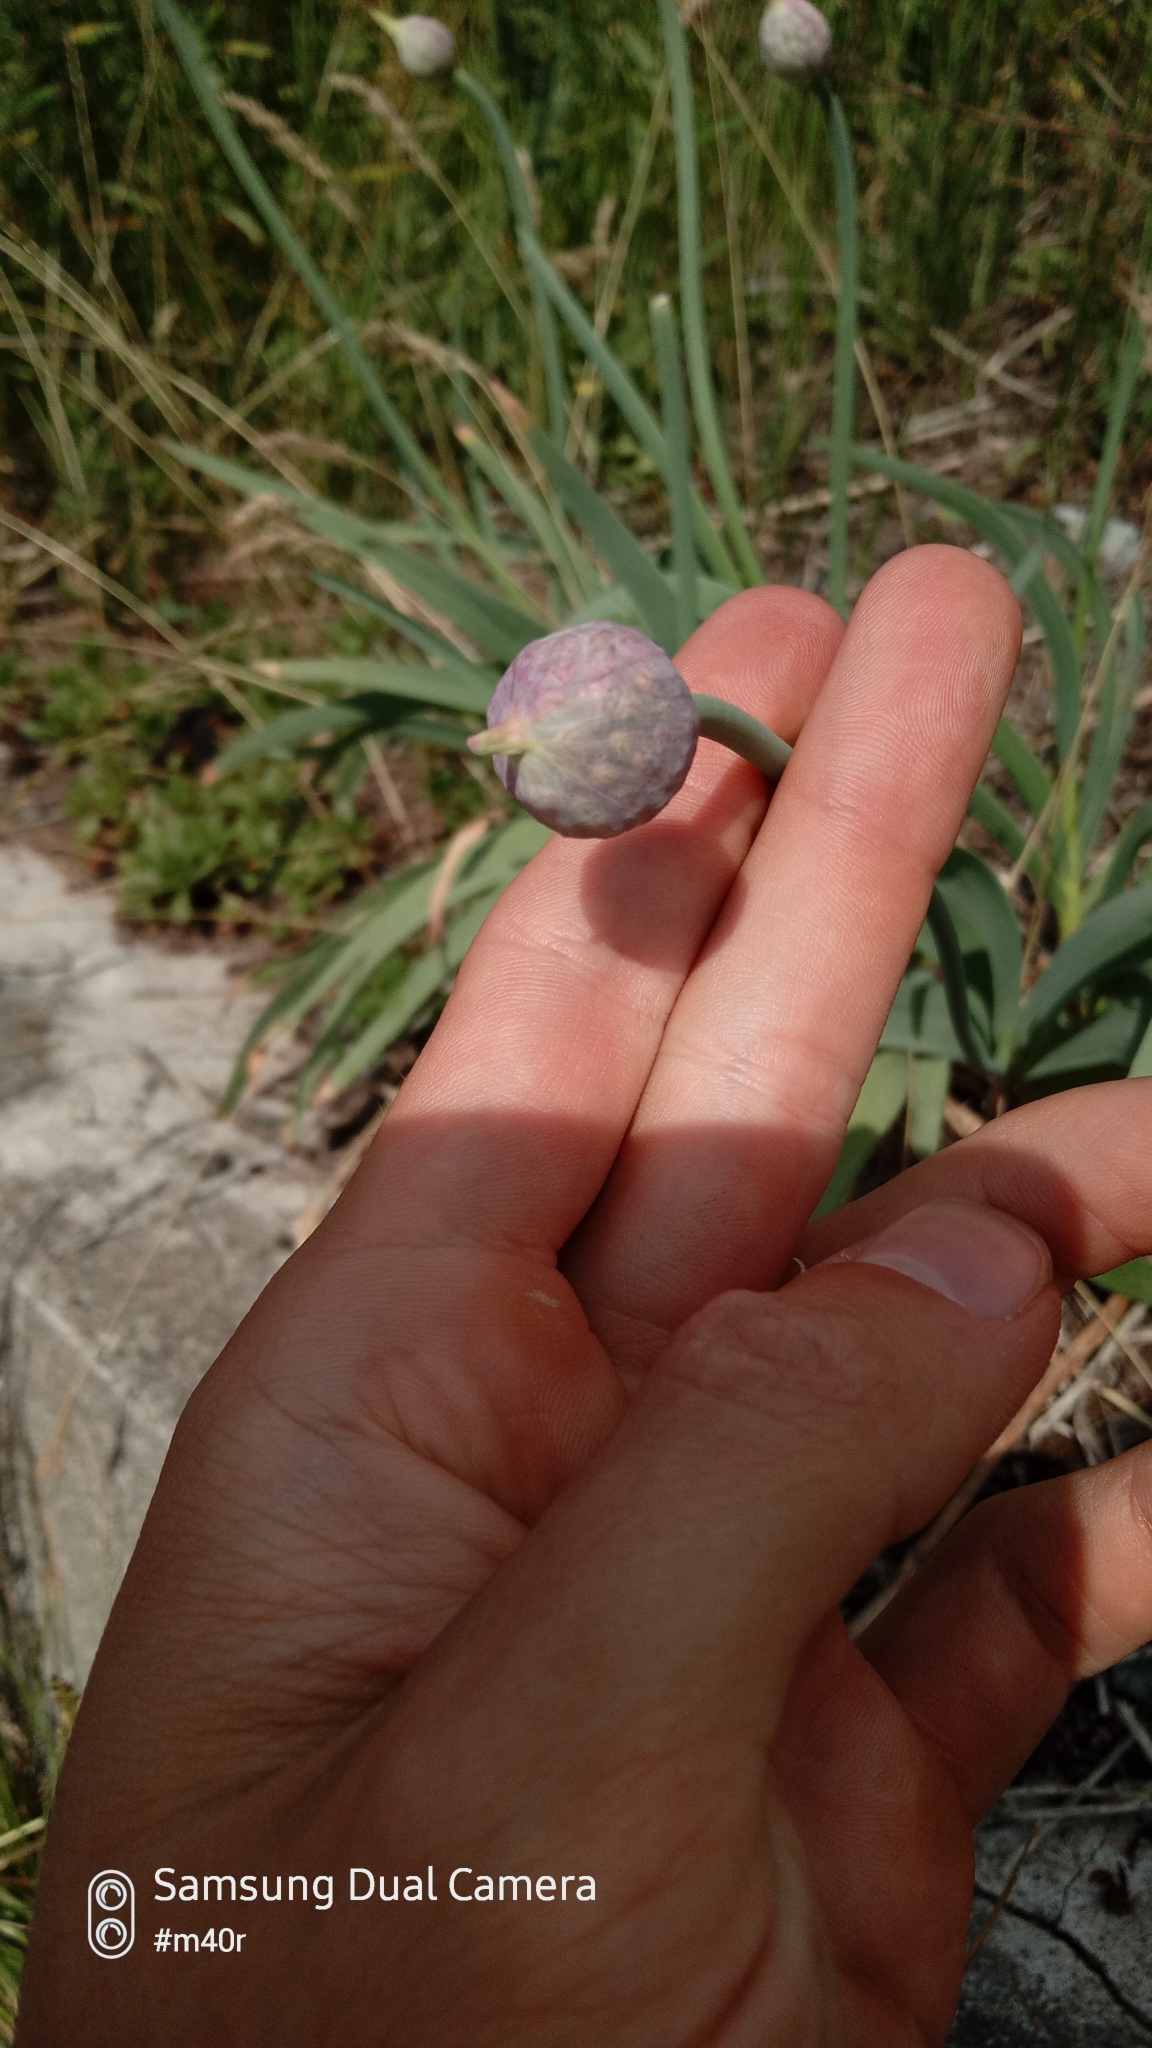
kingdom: Plantae
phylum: Tracheophyta
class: Liliopsida
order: Asparagales
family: Amaryllidaceae
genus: Allium
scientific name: Allium carolinianum
